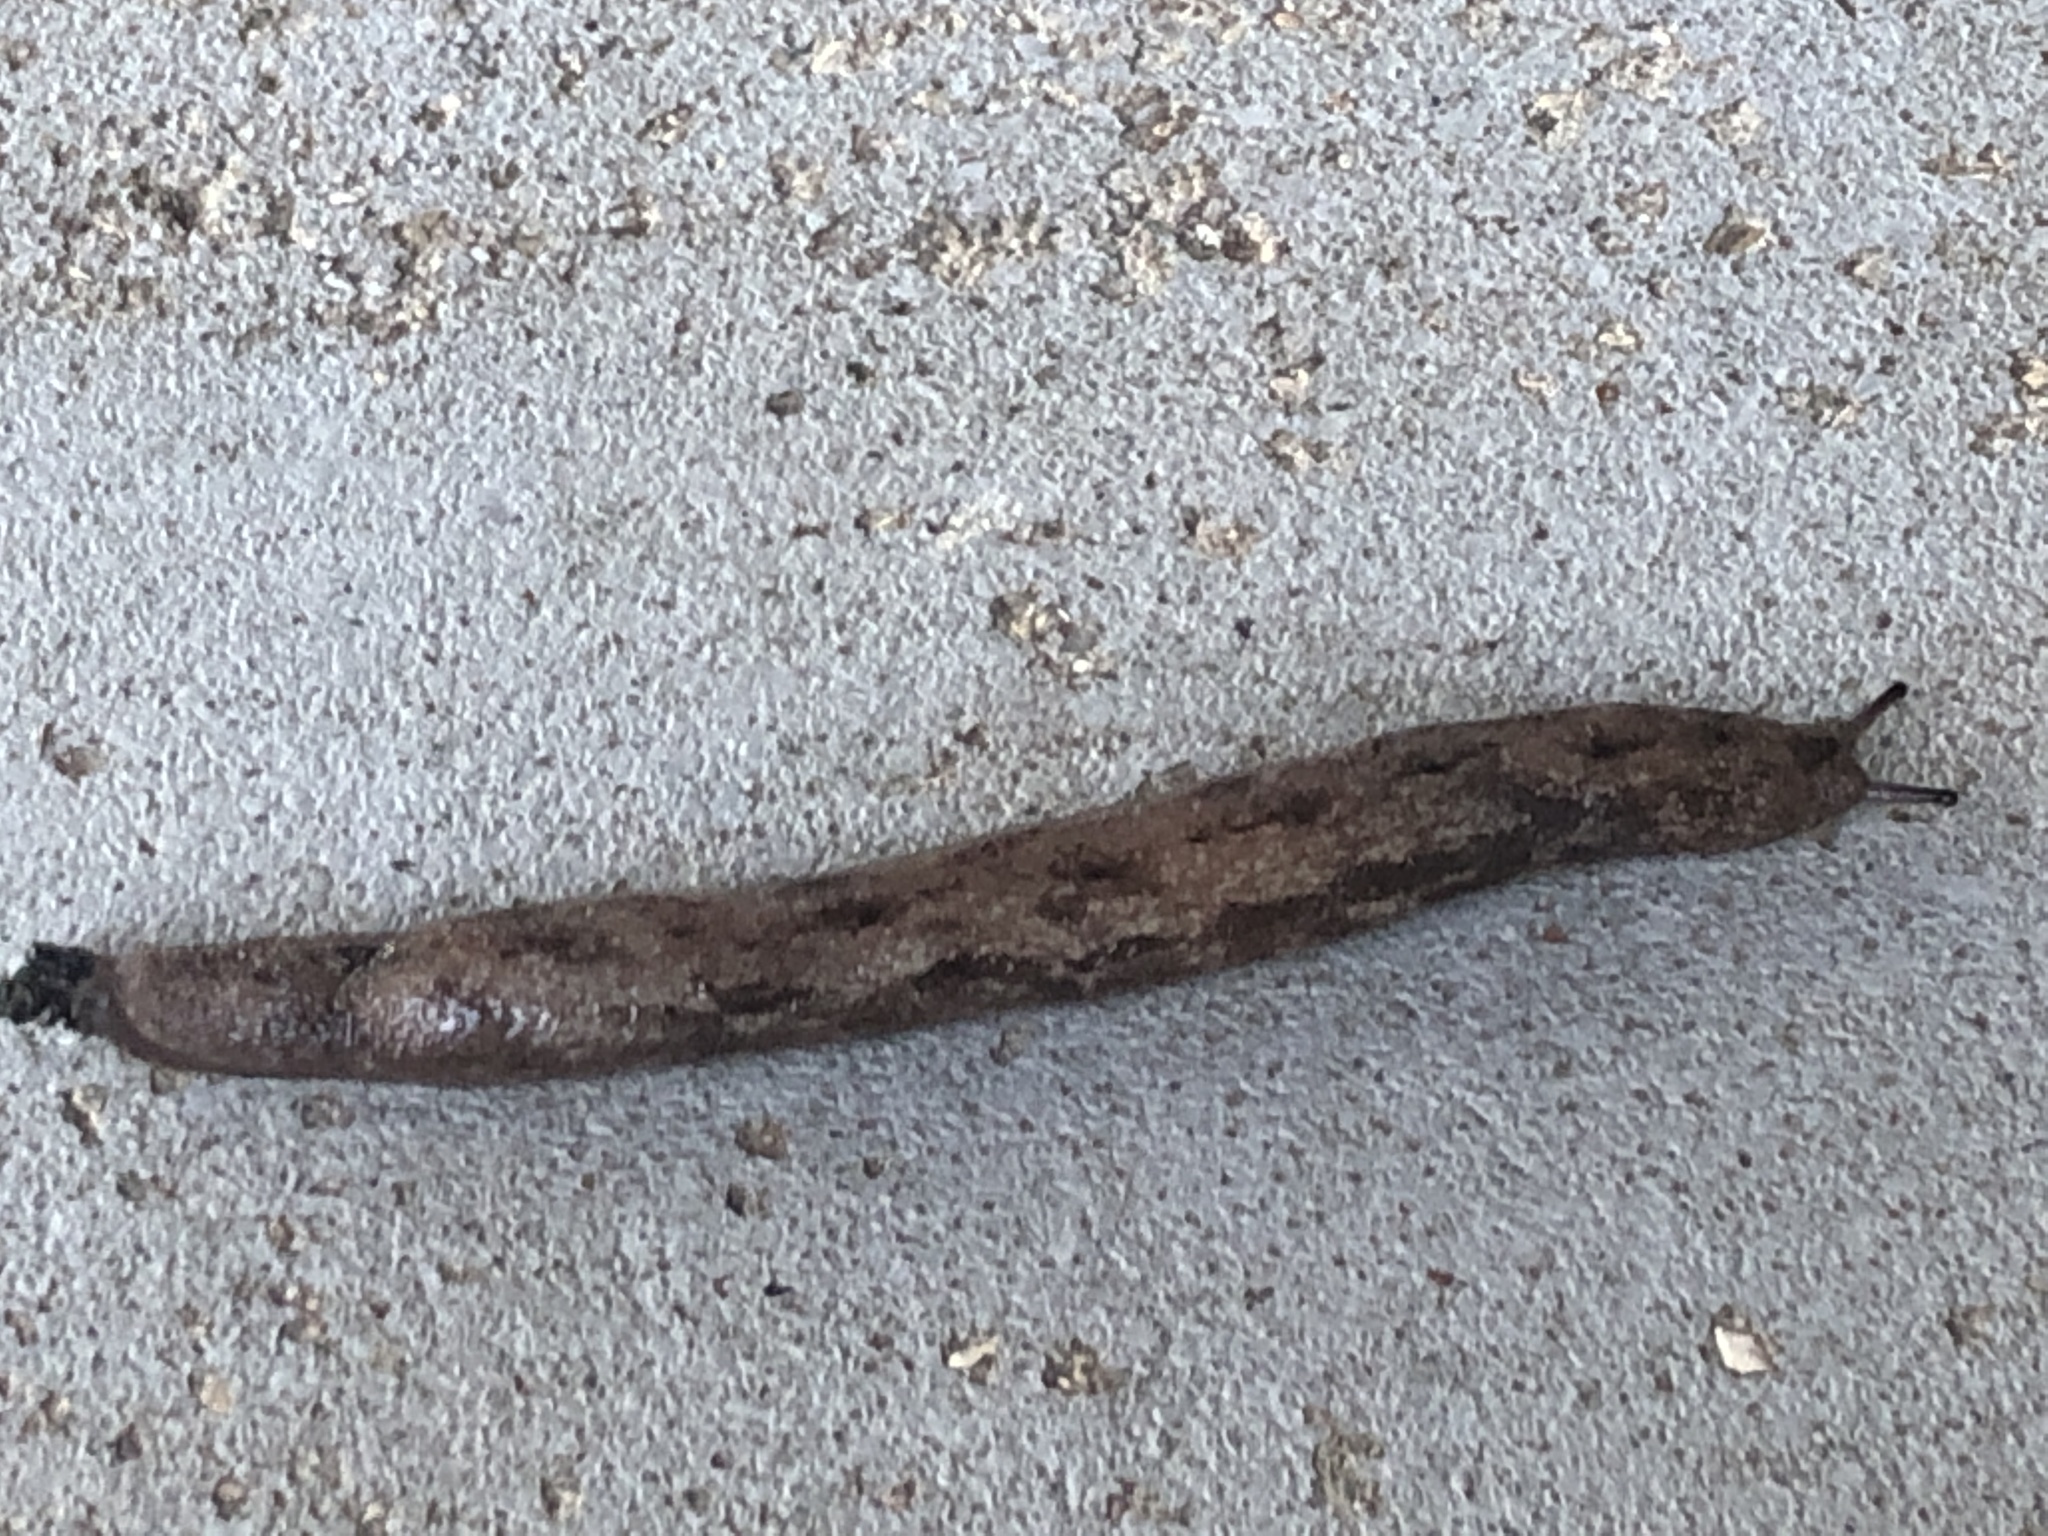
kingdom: Animalia
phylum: Mollusca
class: Gastropoda
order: Stylommatophora
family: Philomycidae
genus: Megapallifera
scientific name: Megapallifera mutabilis
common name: Changeable mantleslug
